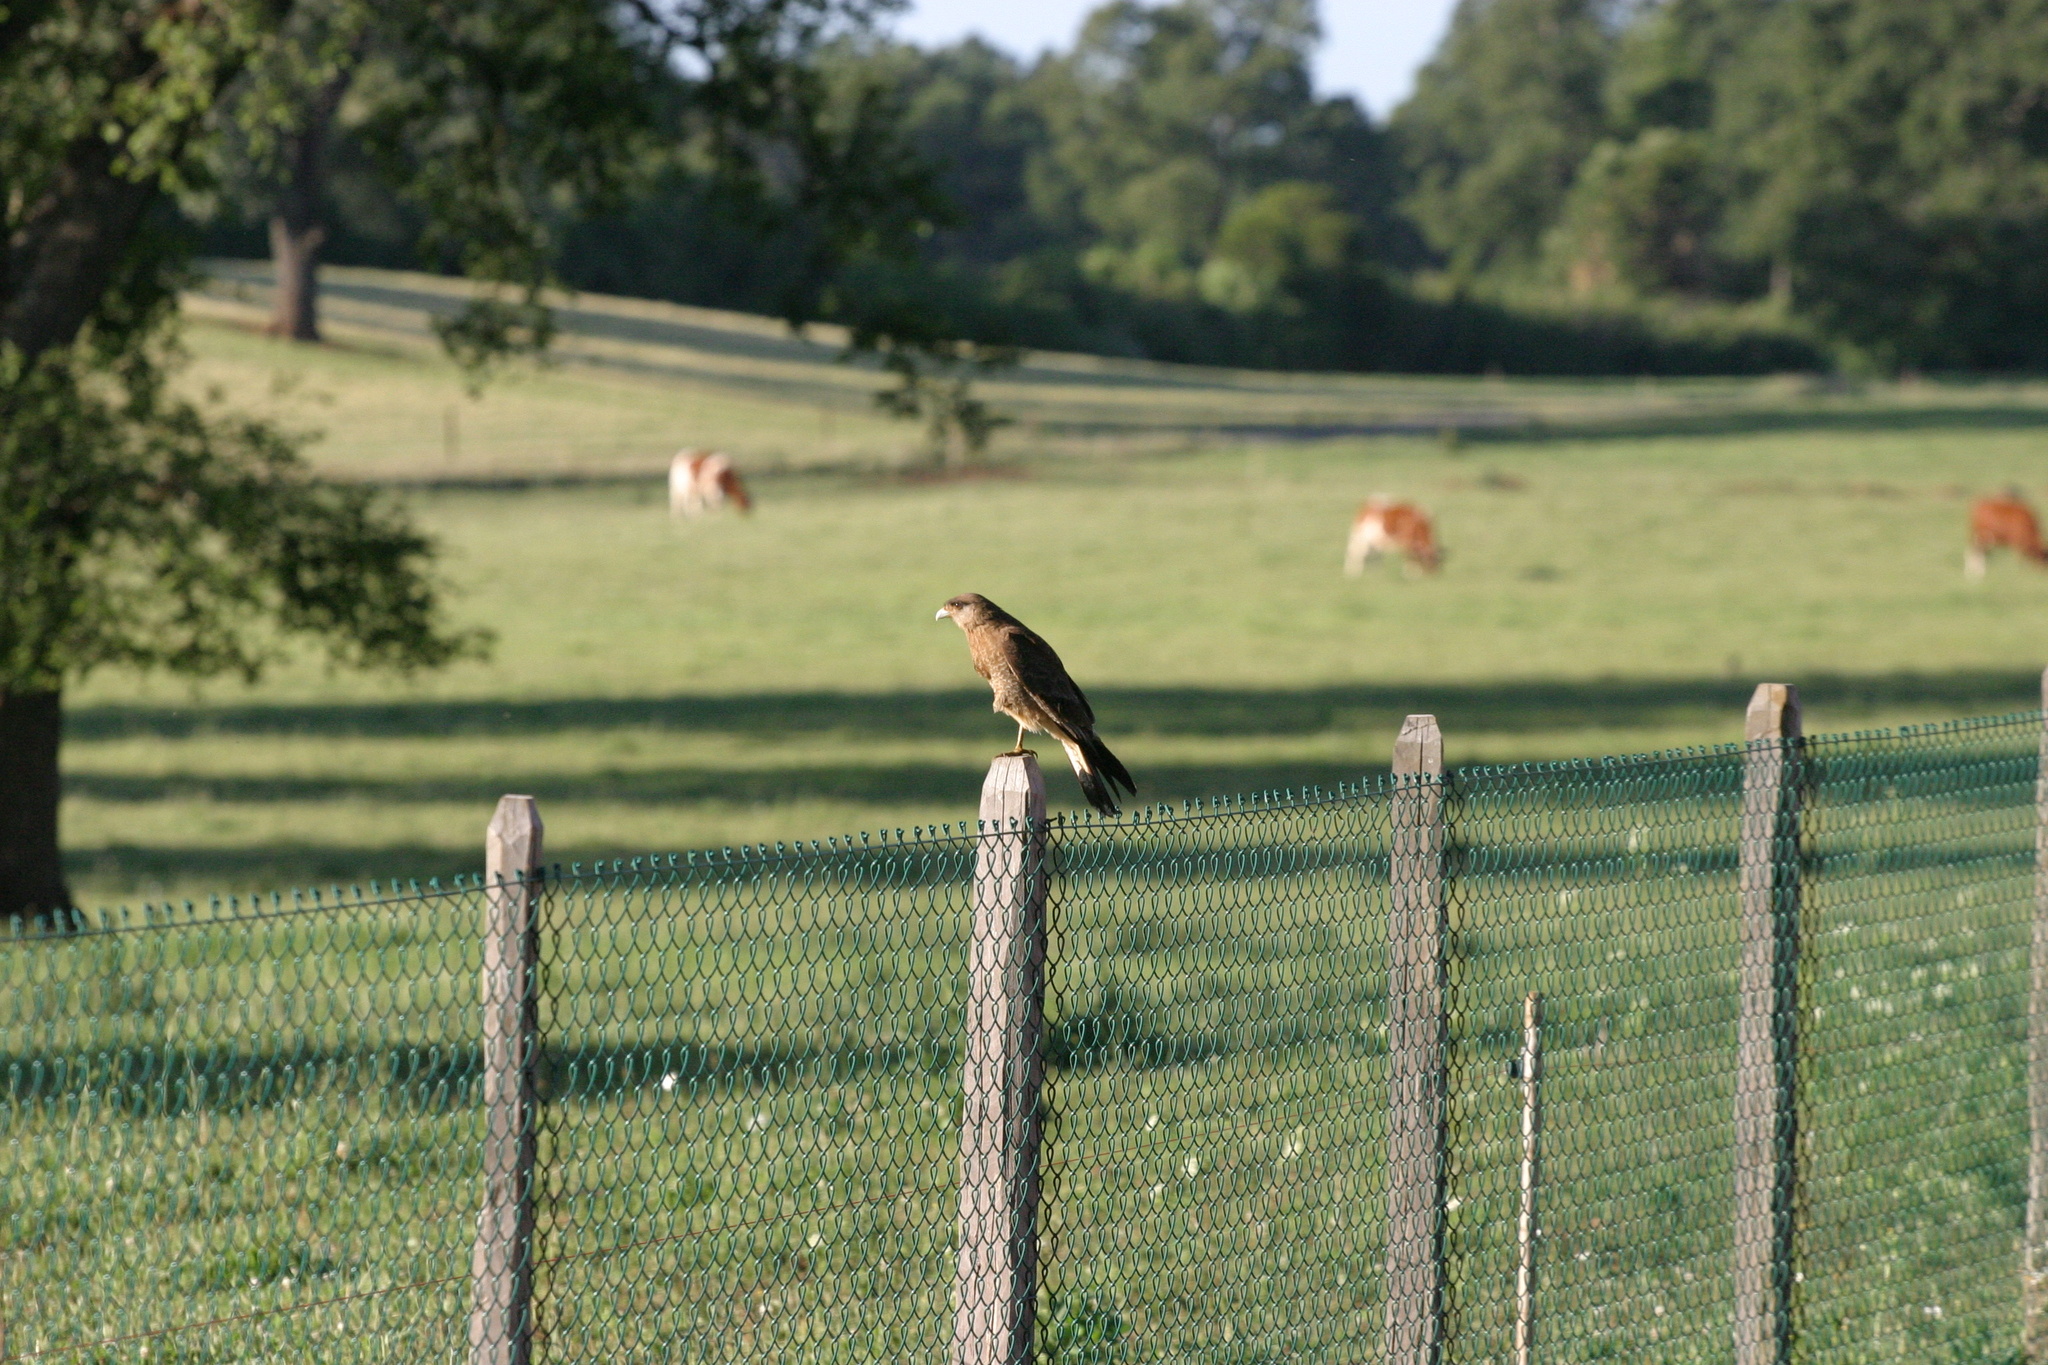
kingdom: Animalia
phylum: Chordata
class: Aves
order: Falconiformes
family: Falconidae
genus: Daptrius
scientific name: Daptrius
